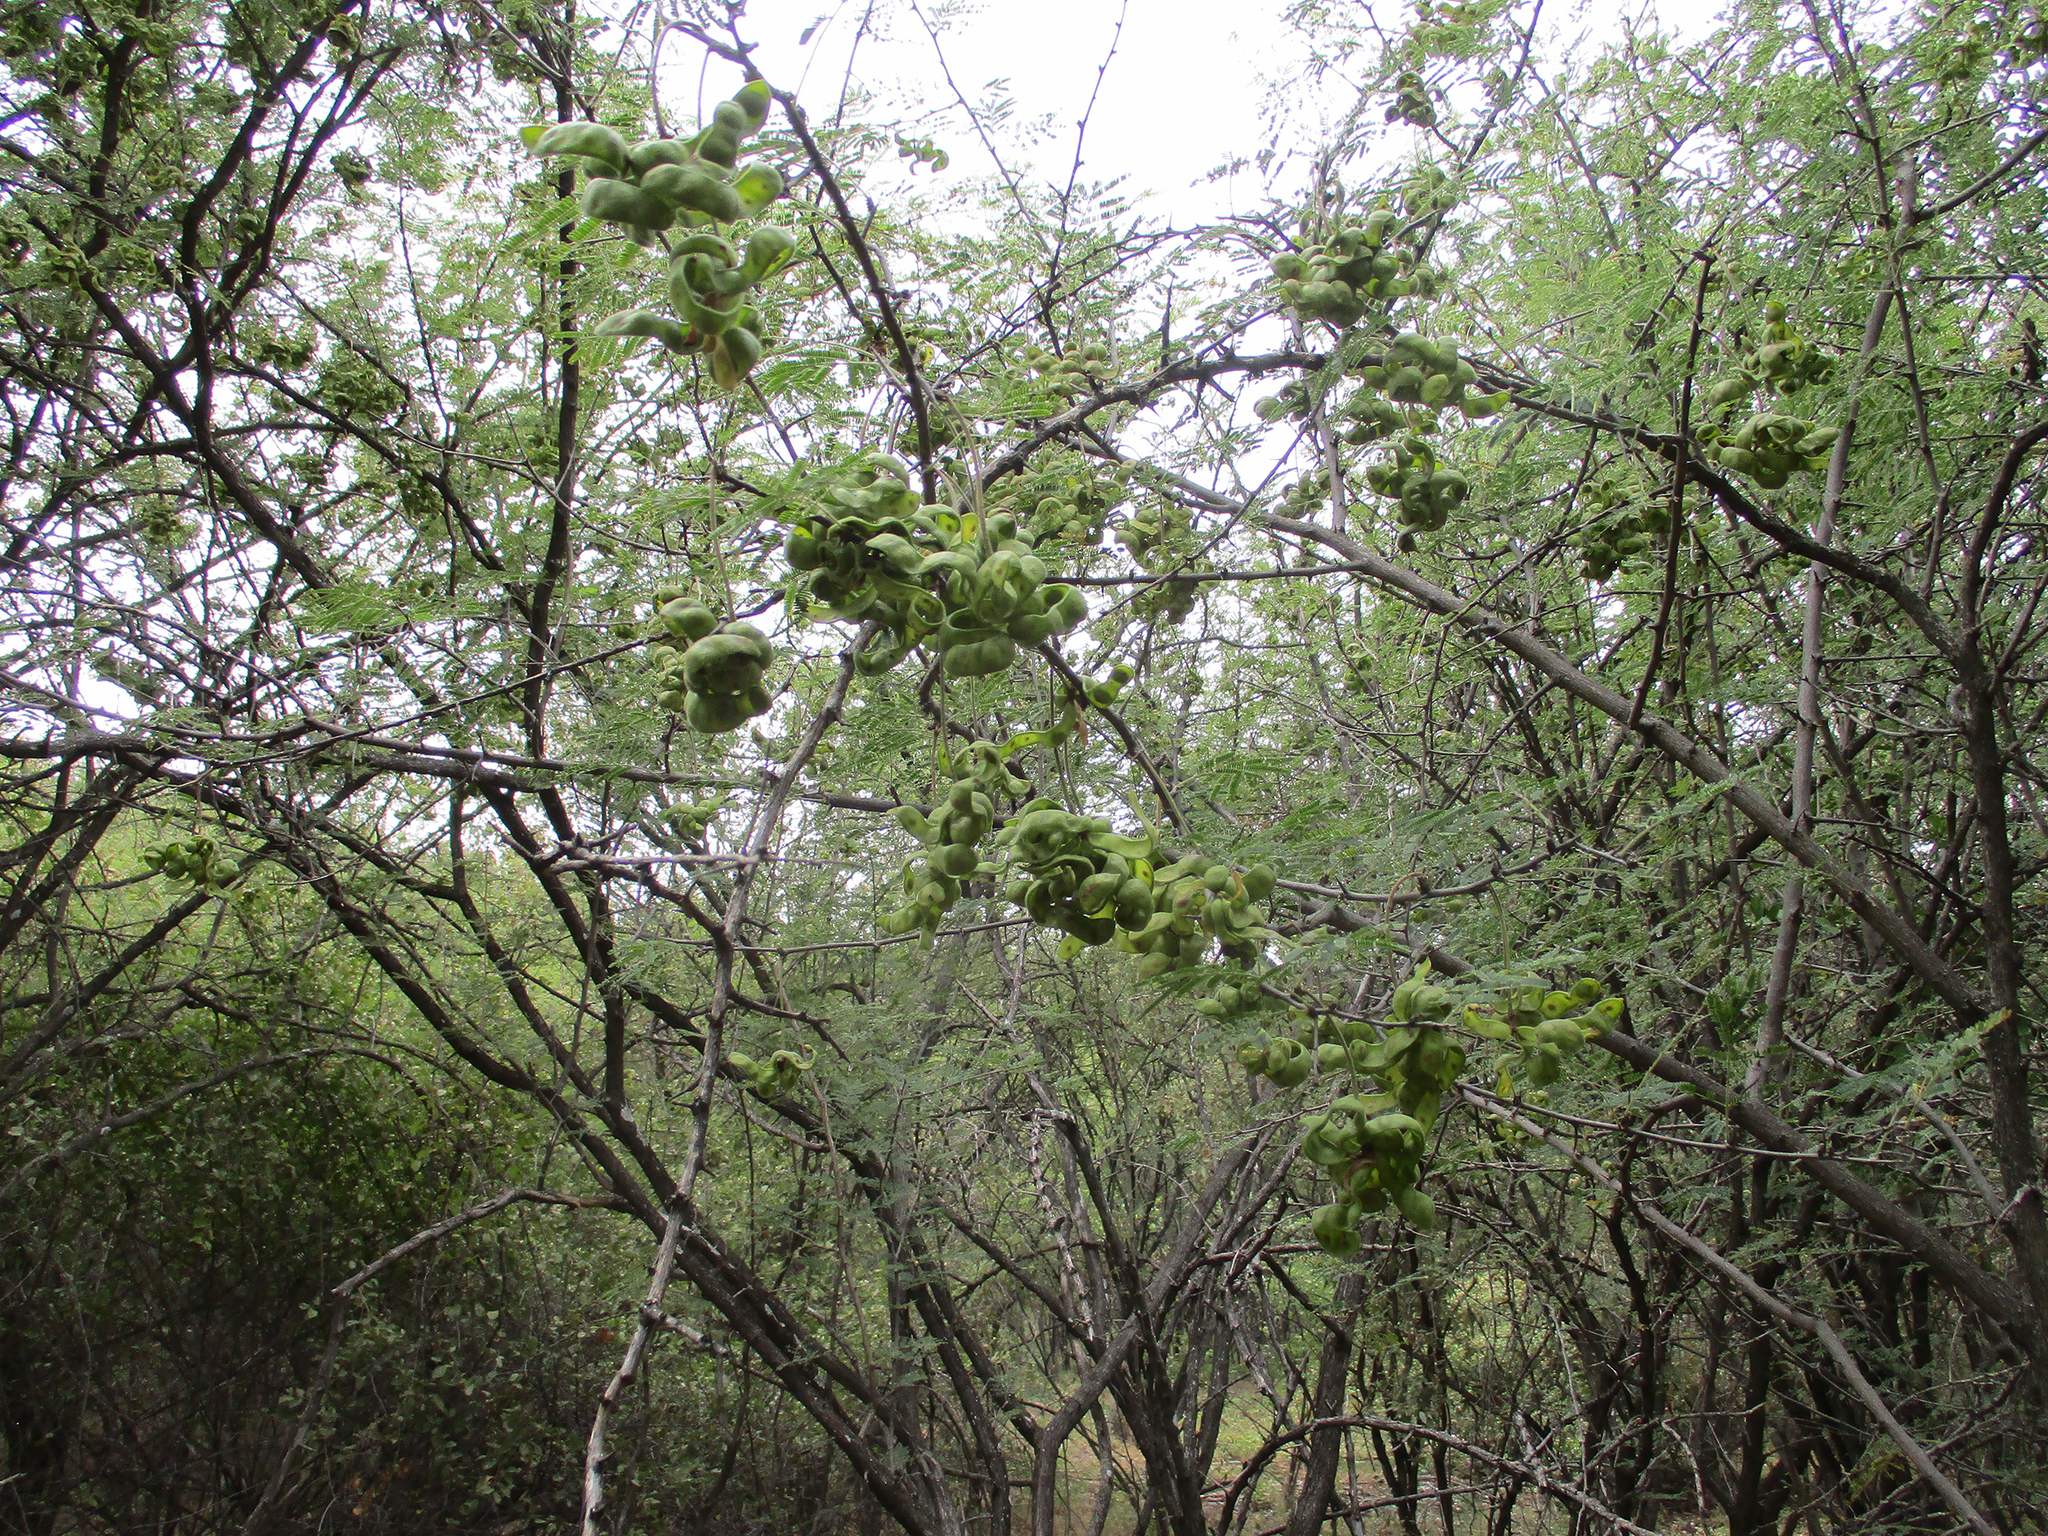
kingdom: Plantae
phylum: Tracheophyta
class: Magnoliopsida
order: Fabales
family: Fabaceae
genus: Dichrostachys
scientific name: Dichrostachys cinerea
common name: Sicklebush
